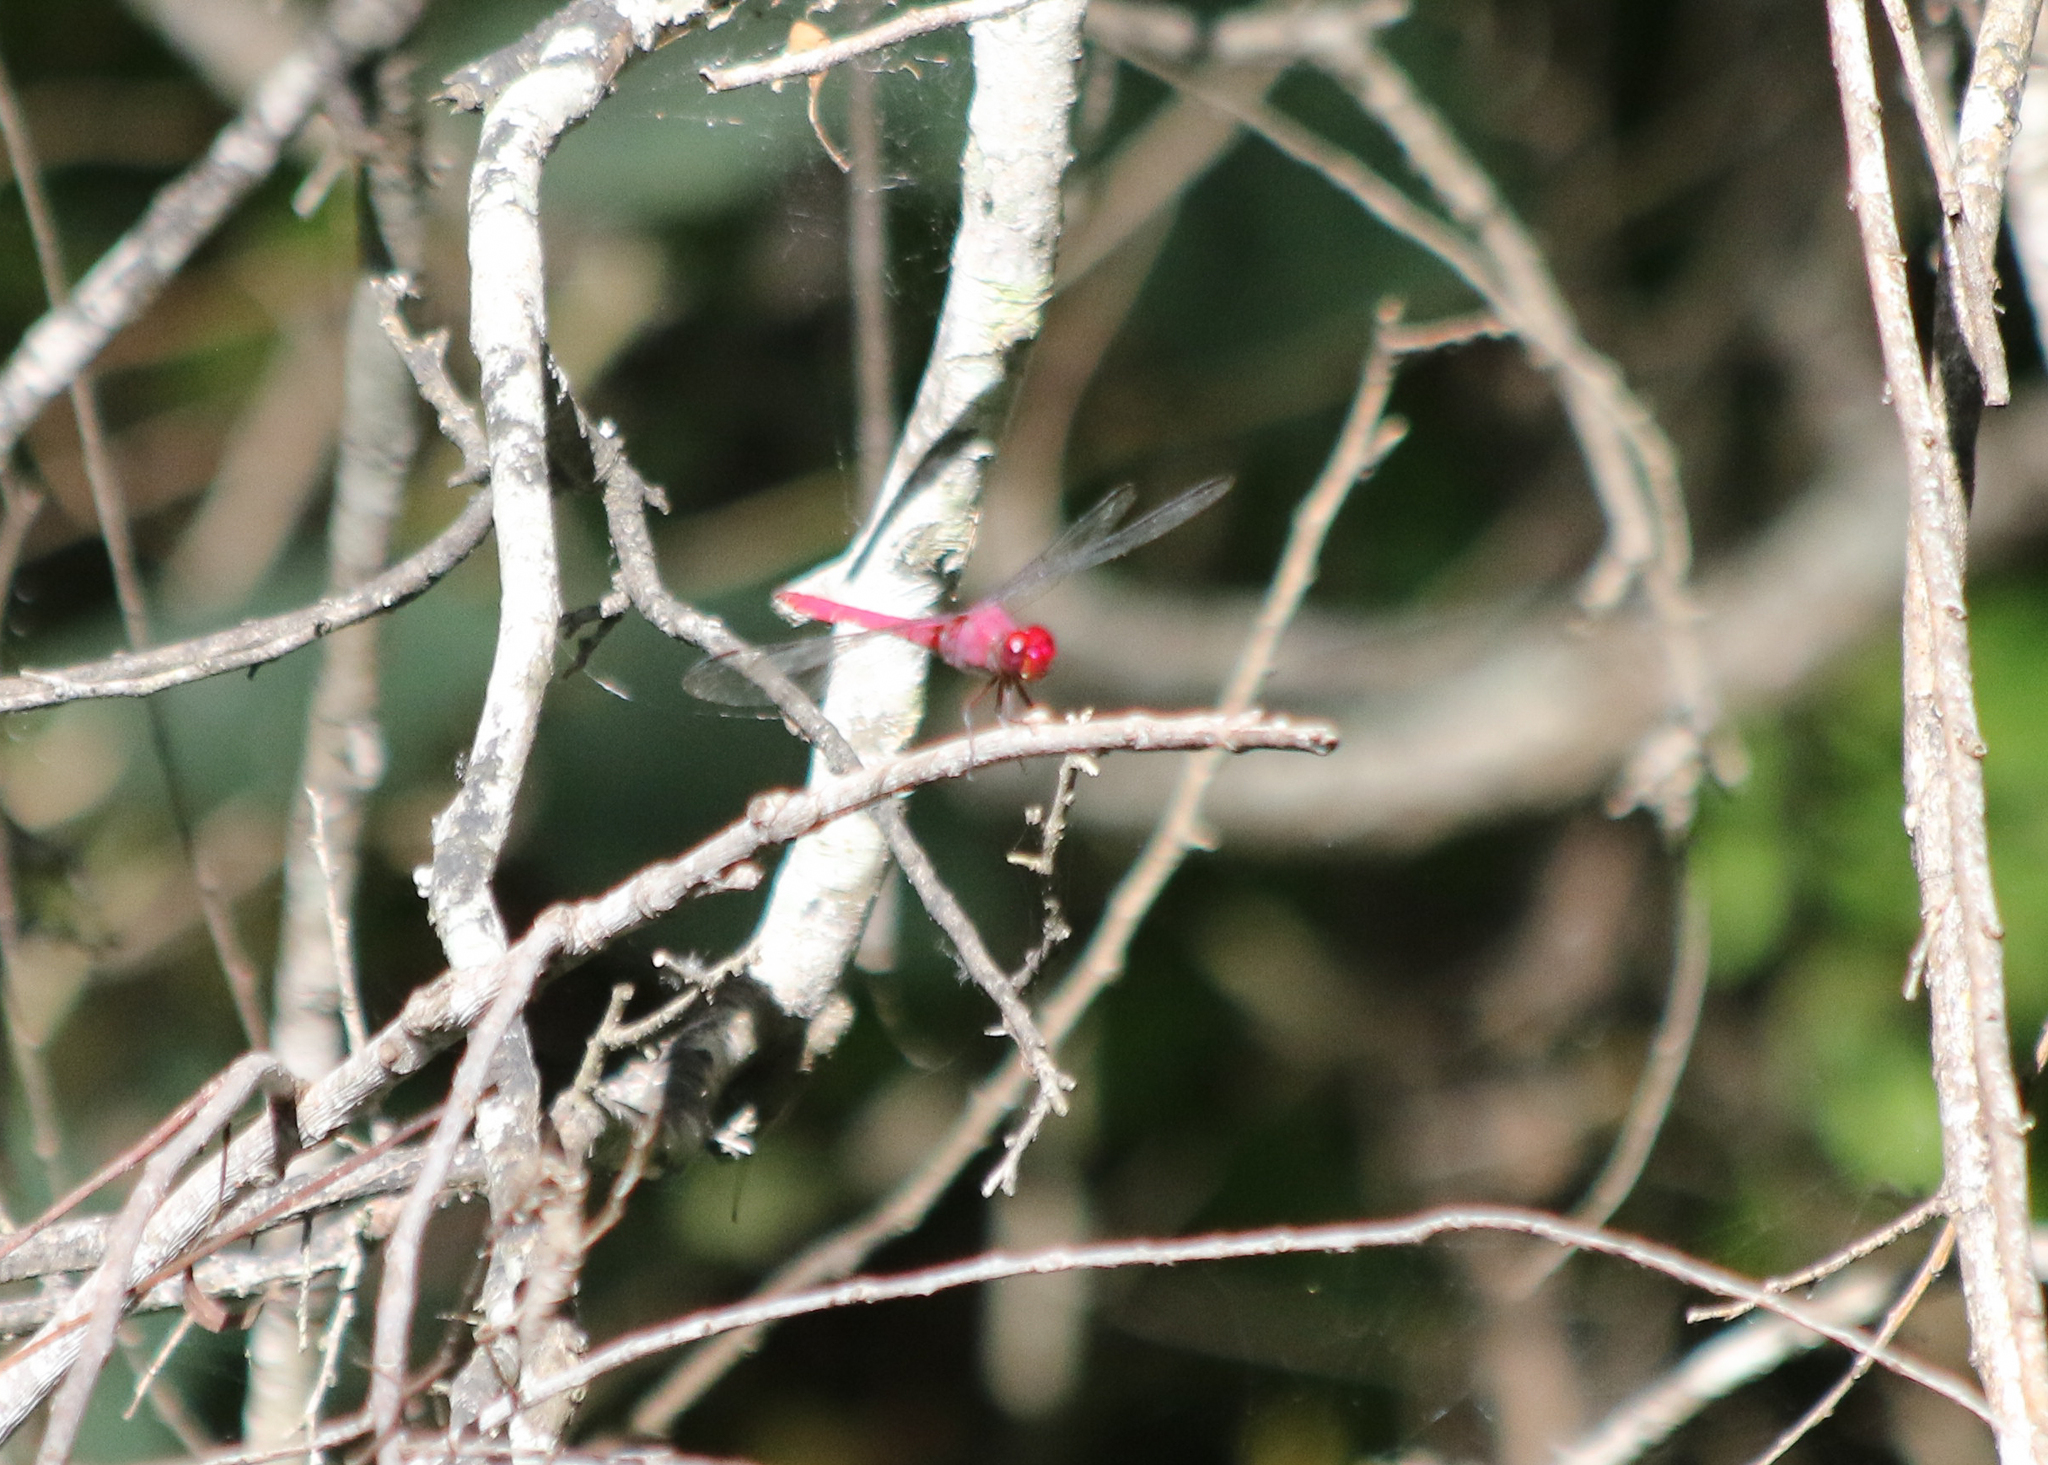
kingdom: Animalia
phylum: Arthropoda
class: Insecta
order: Odonata
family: Libellulidae
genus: Orthemis
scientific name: Orthemis discolor
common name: Carmine skimmer
